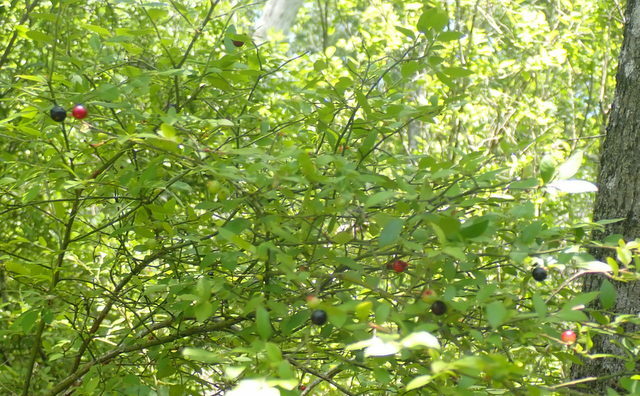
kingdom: Plantae
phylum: Tracheophyta
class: Magnoliopsida
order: Ericales
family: Ericaceae
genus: Vaccinium
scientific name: Vaccinium corymbosum
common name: Blueberry
